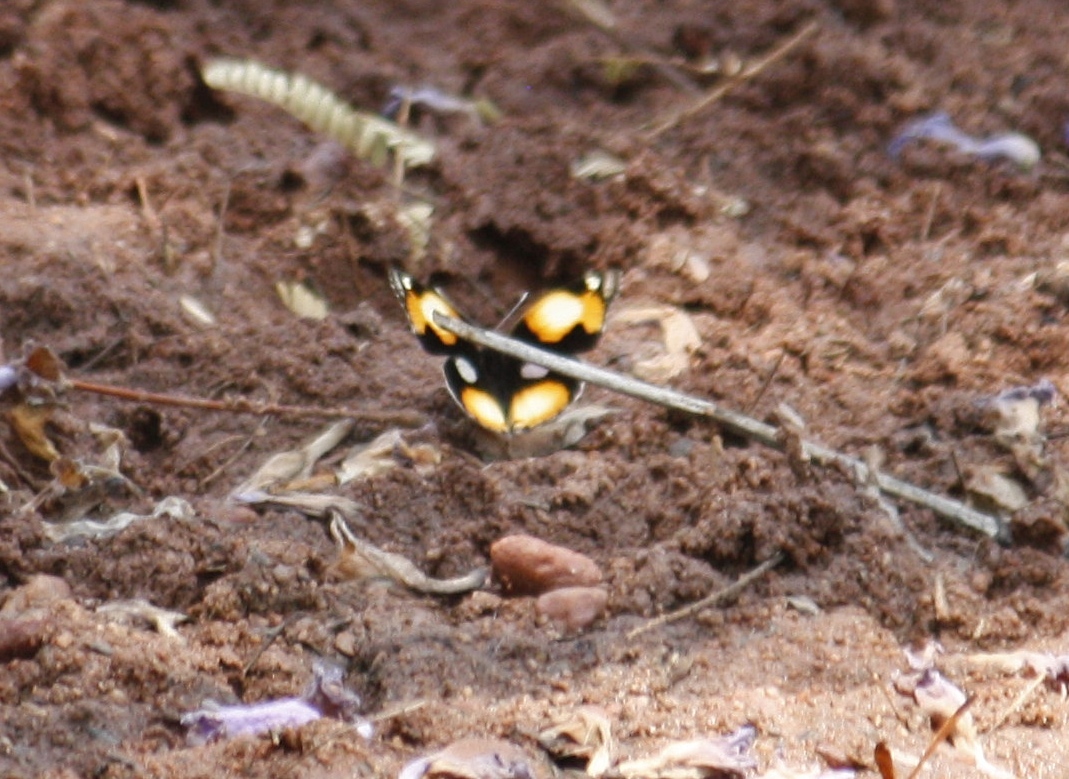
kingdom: Animalia
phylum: Arthropoda
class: Insecta
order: Lepidoptera
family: Nymphalidae
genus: Junonia
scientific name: Junonia hierta
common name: Yellow pansy
